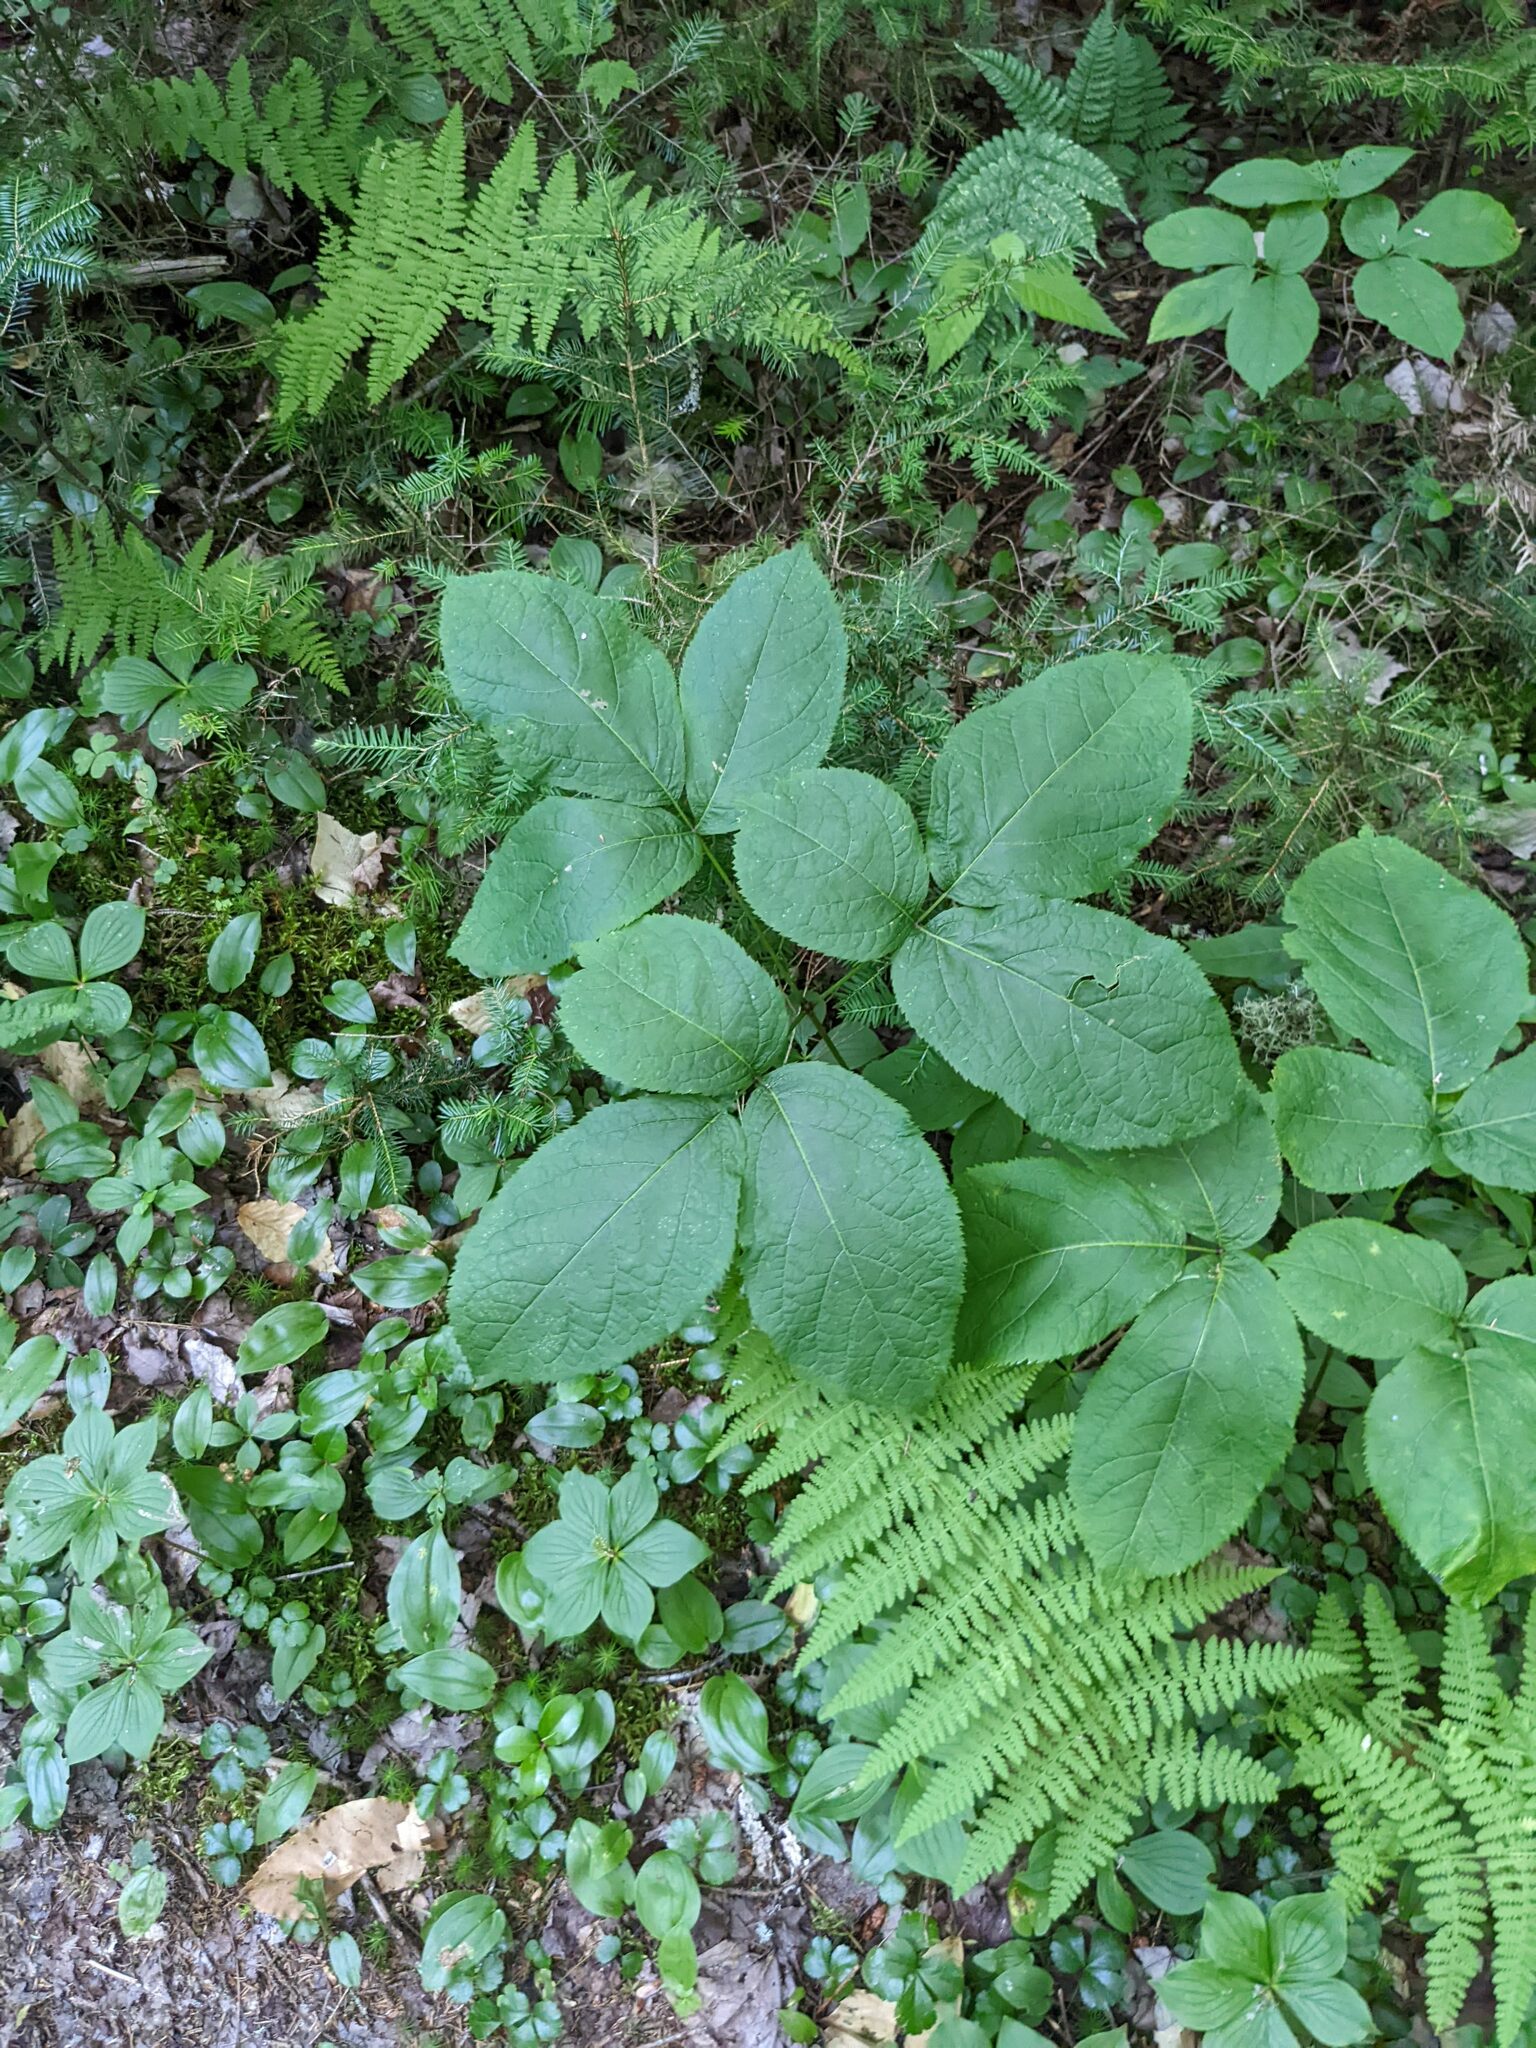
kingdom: Plantae
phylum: Tracheophyta
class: Magnoliopsida
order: Apiales
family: Araliaceae
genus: Aralia
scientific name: Aralia nudicaulis
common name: Wild sarsaparilla
